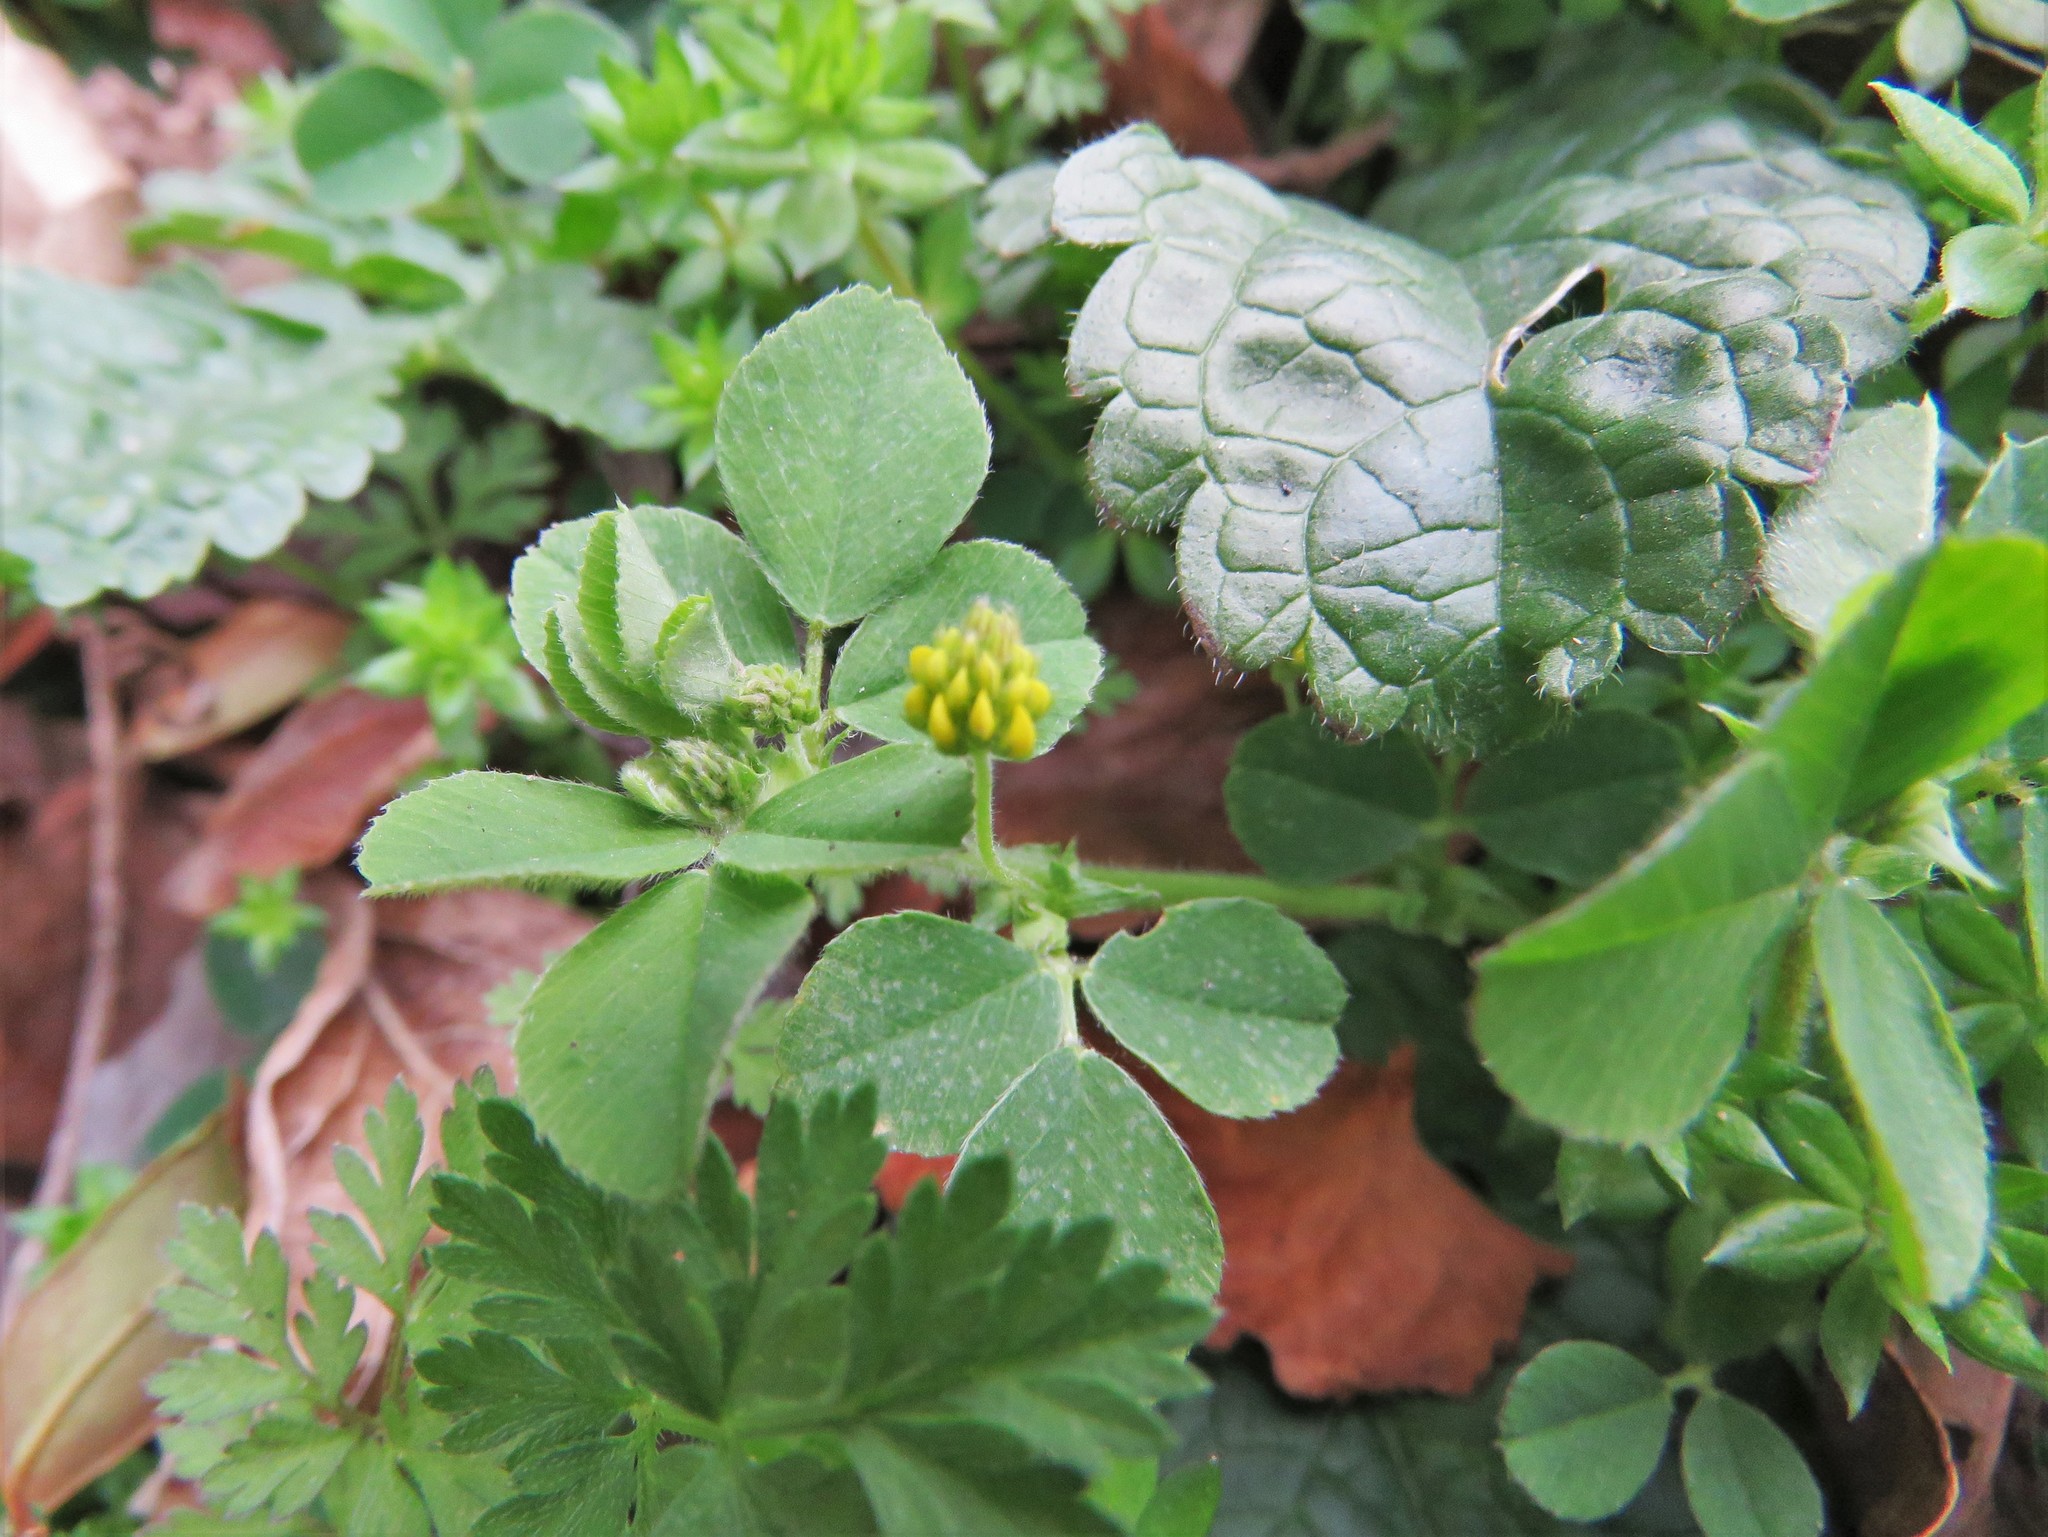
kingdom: Plantae
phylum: Tracheophyta
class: Magnoliopsida
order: Fabales
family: Fabaceae
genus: Medicago
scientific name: Medicago lupulina
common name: Black medick
